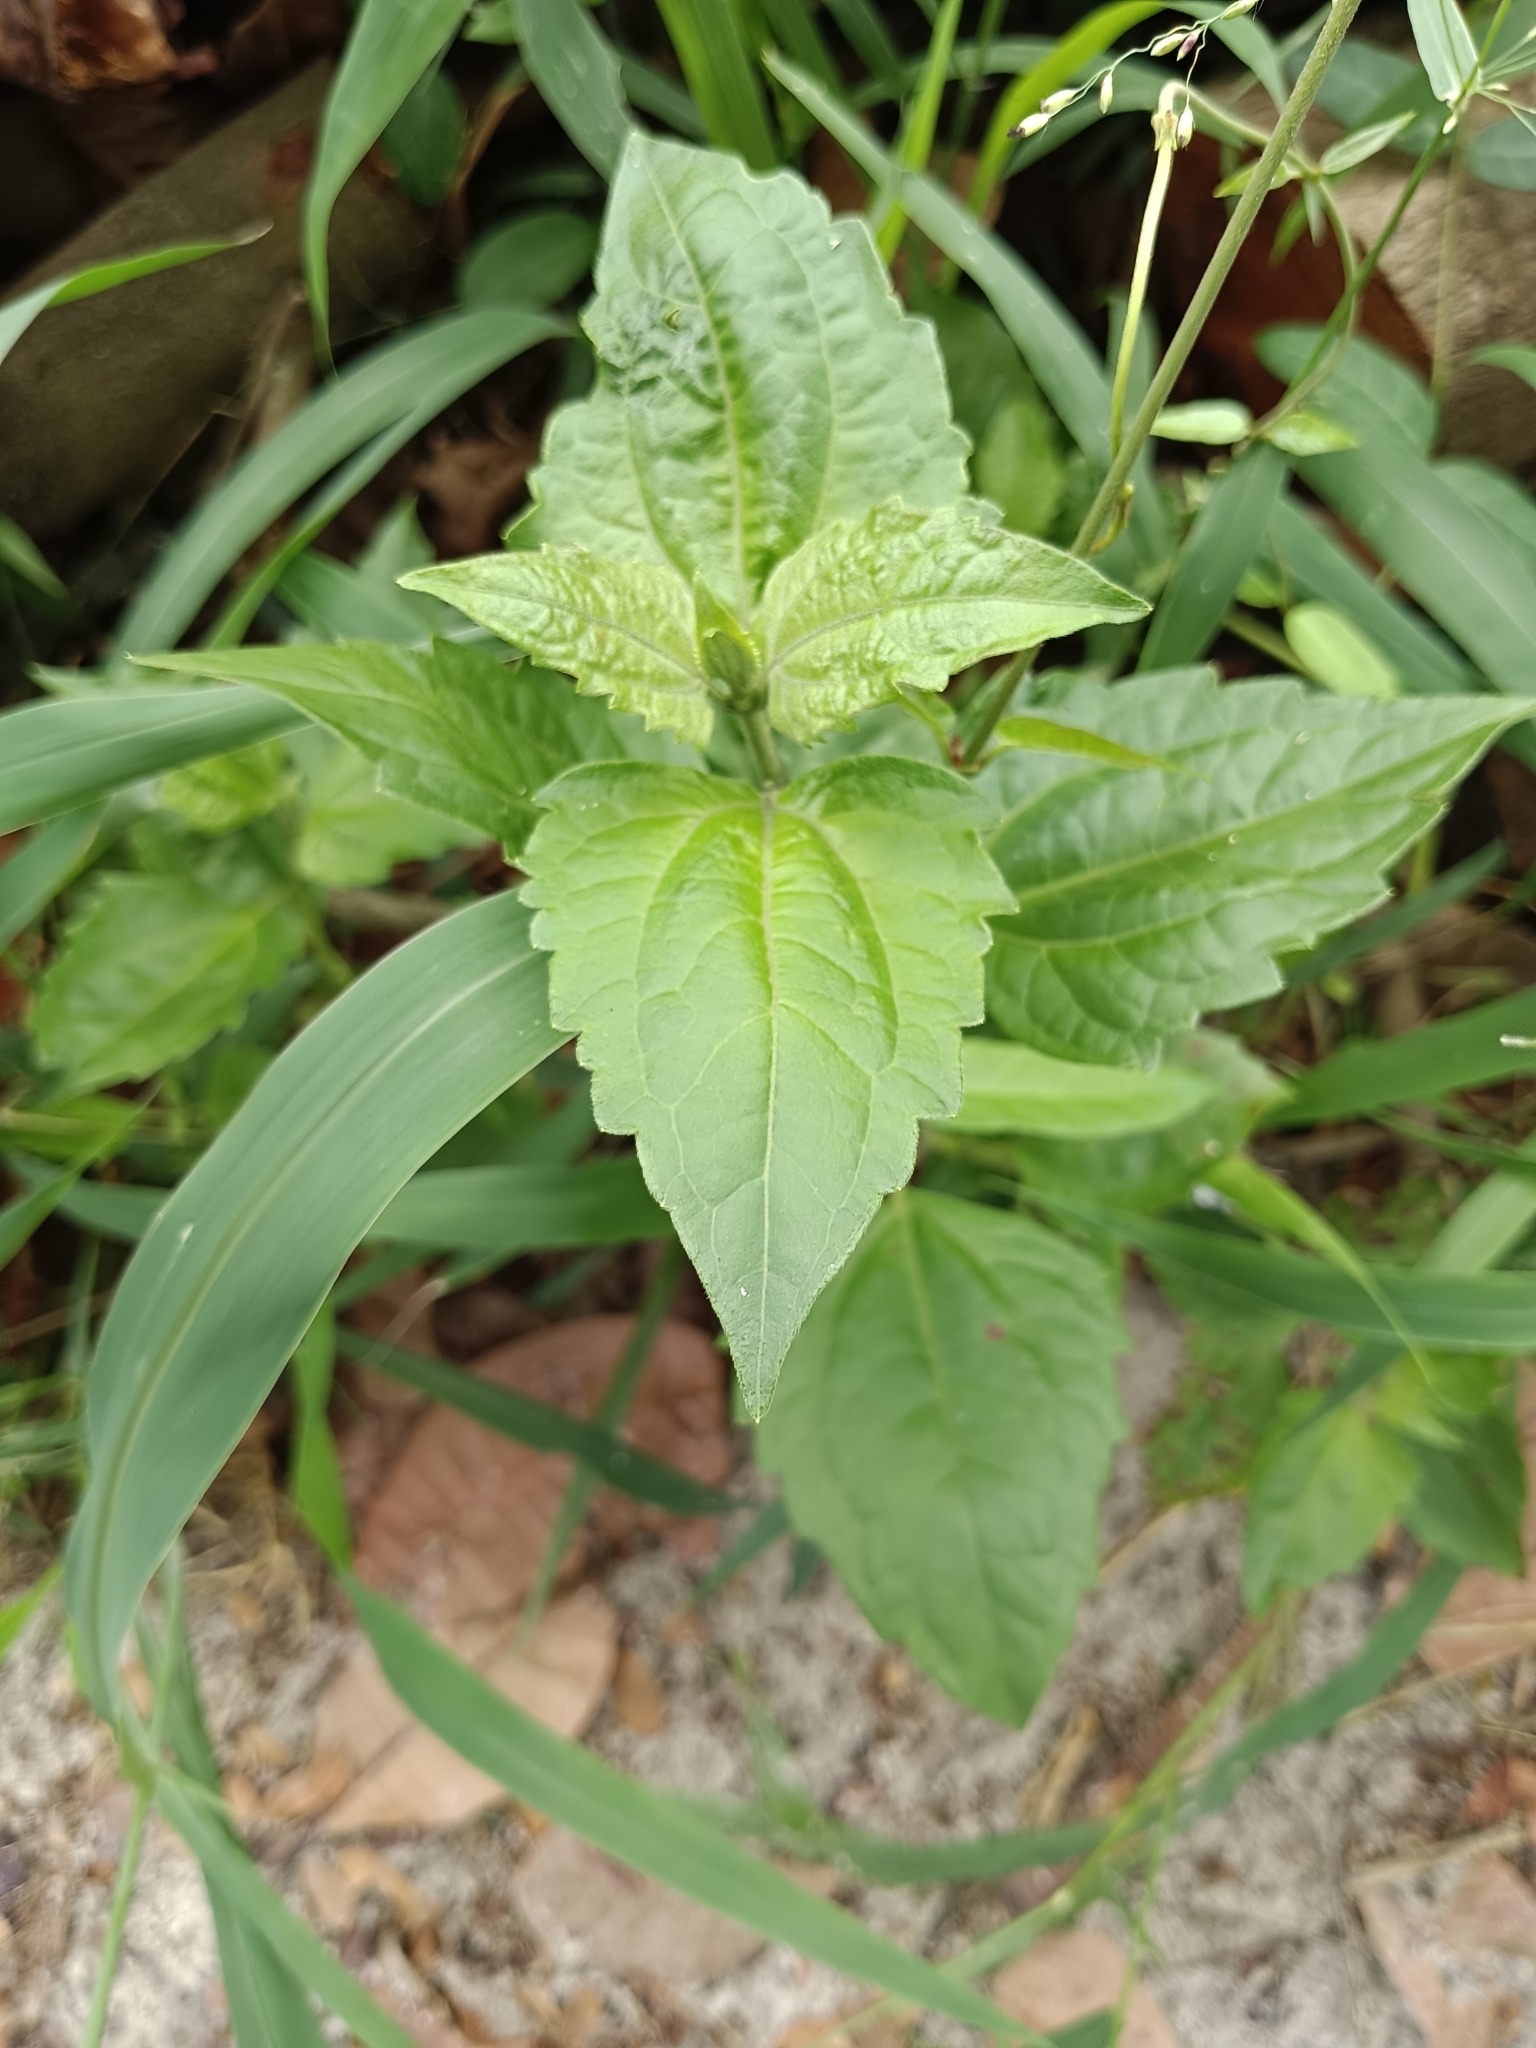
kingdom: Plantae
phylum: Tracheophyta
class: Magnoliopsida
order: Asterales
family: Asteraceae
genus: Chromolaena
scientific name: Chromolaena odorata
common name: Siamweed
